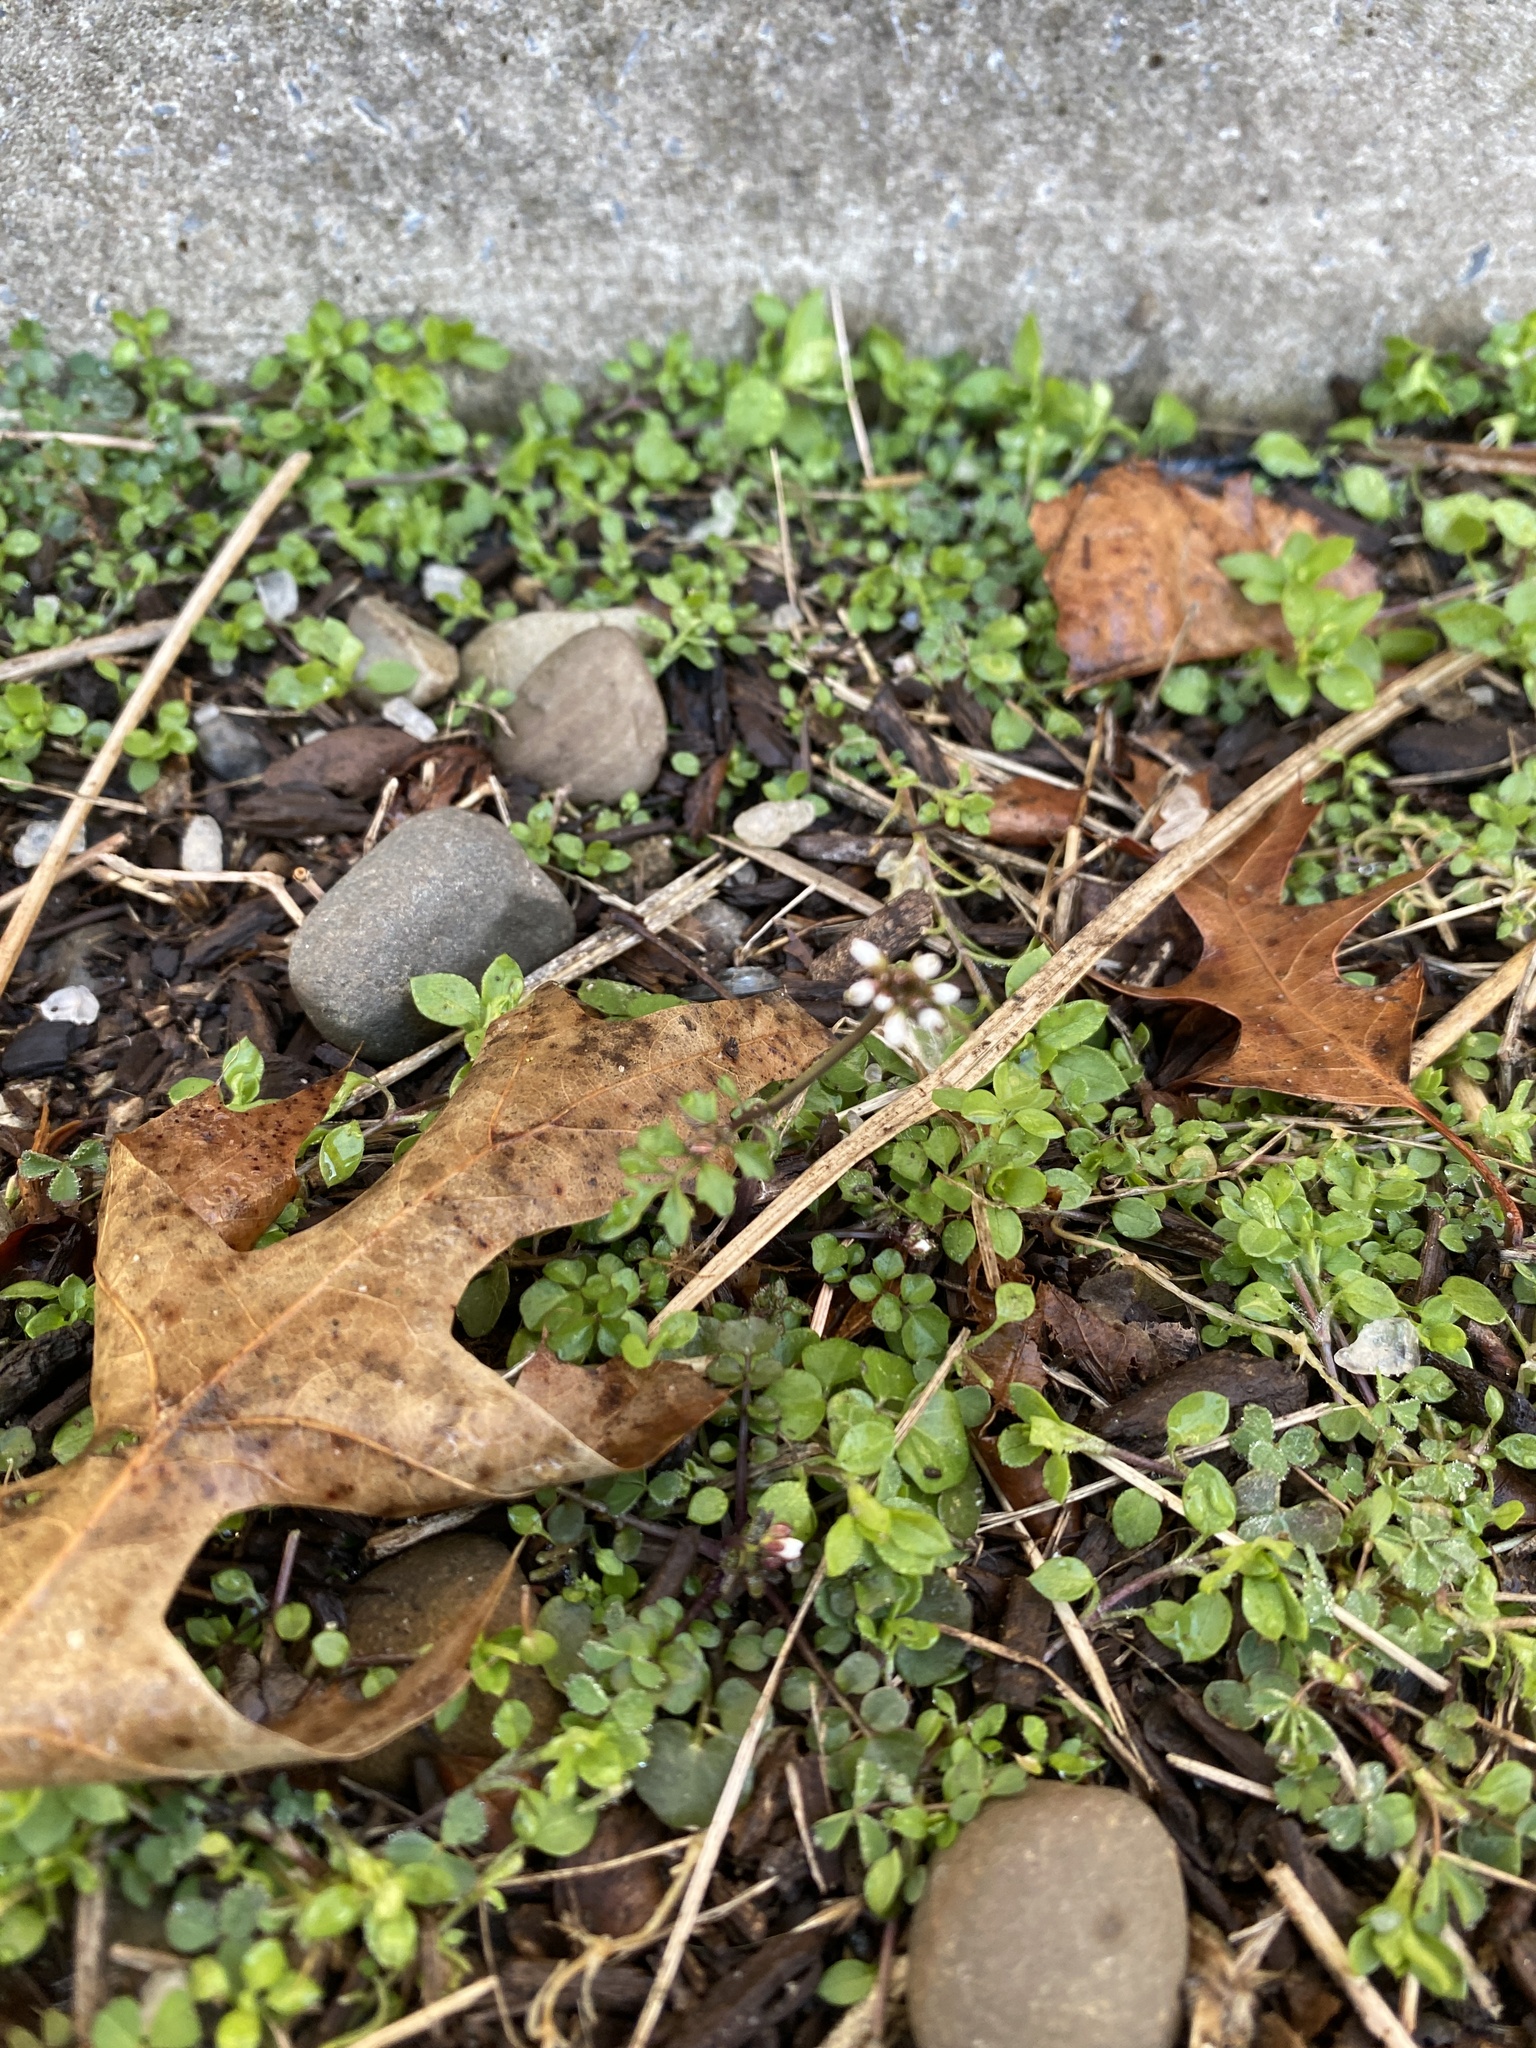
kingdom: Plantae
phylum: Tracheophyta
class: Magnoliopsida
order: Brassicales
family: Brassicaceae
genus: Cardamine
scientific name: Cardamine hirsuta
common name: Hairy bittercress
